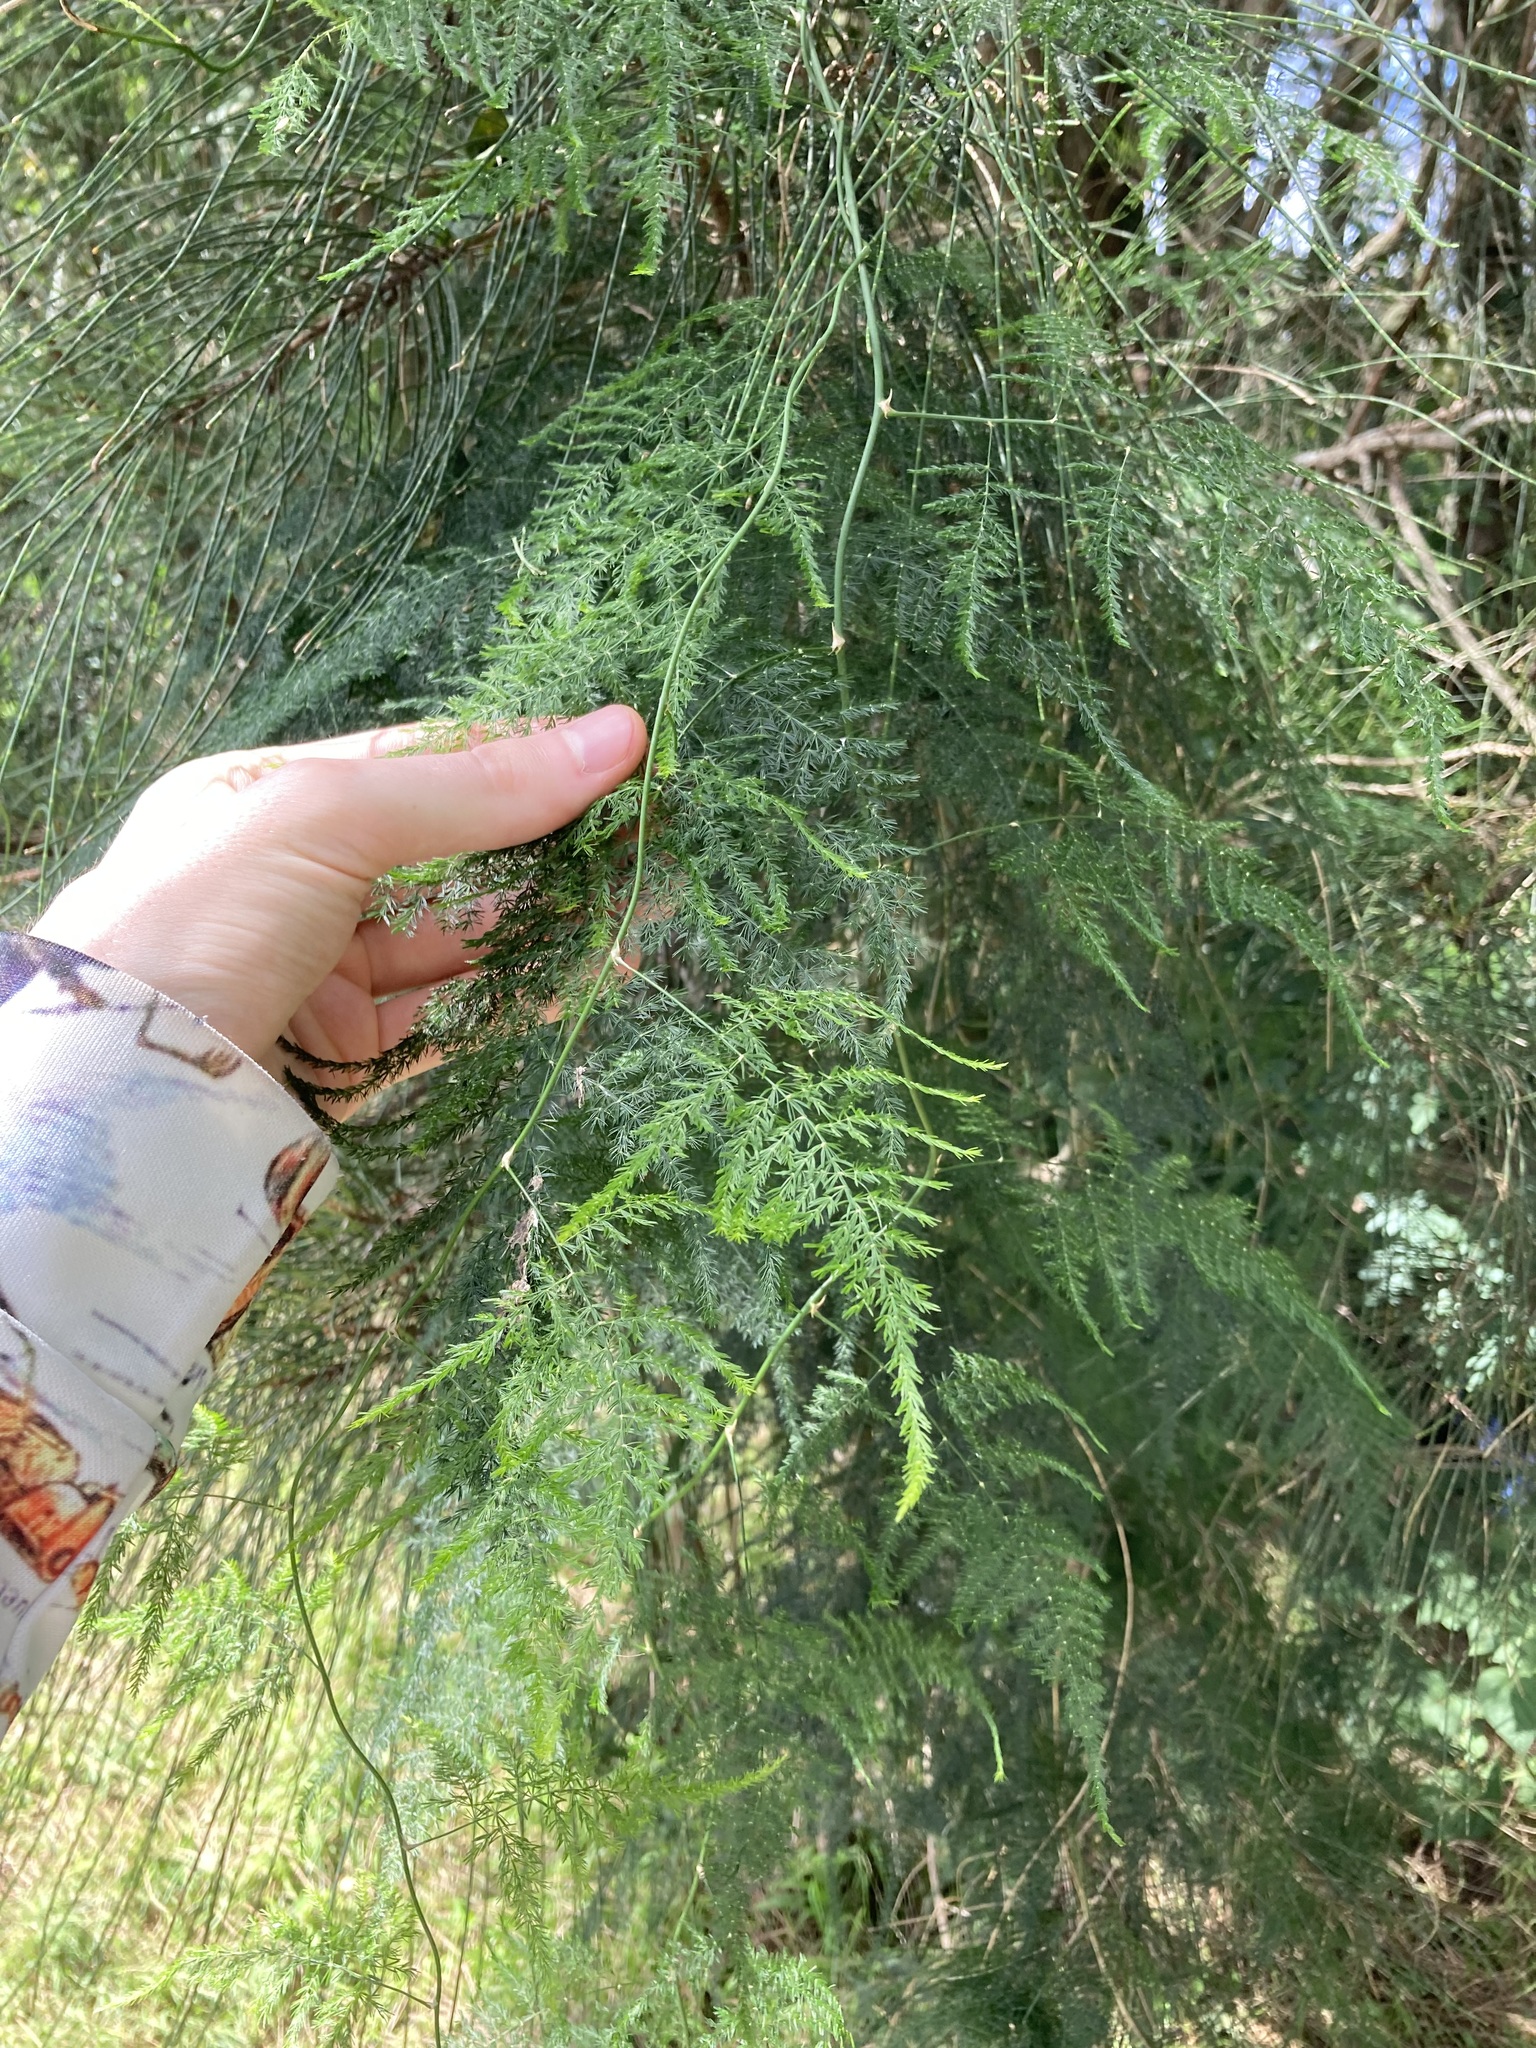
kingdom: Plantae
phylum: Tracheophyta
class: Liliopsida
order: Asparagales
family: Asparagaceae
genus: Asparagus
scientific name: Asparagus setaceus
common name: Common asparagus fern
